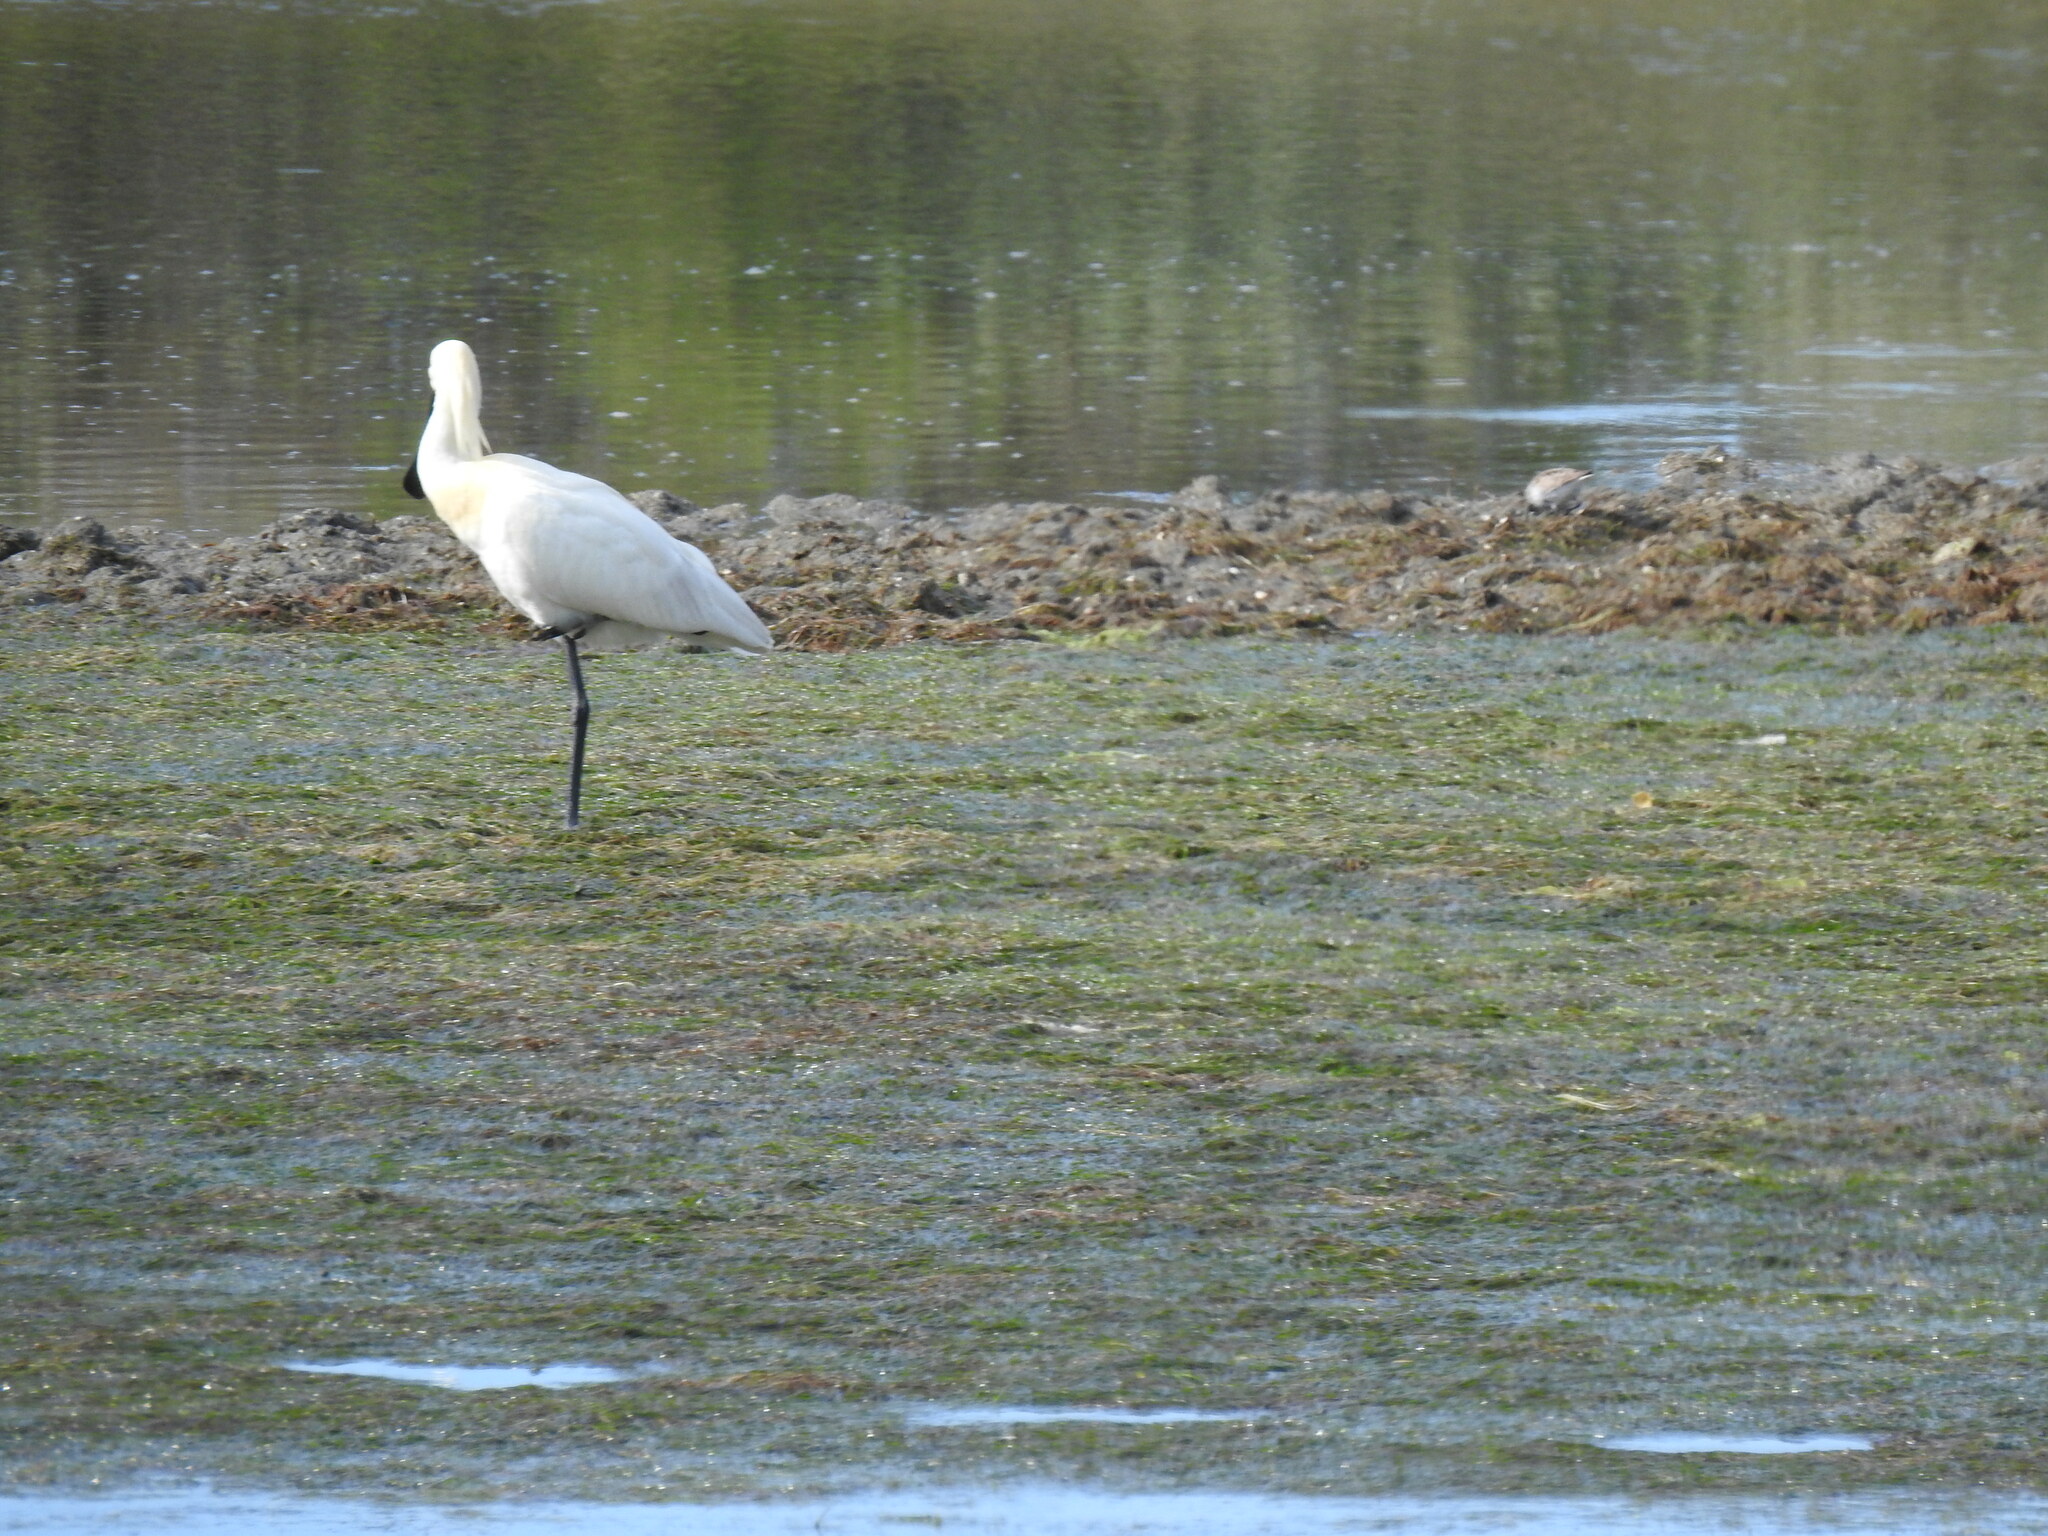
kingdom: Animalia
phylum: Chordata
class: Aves
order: Pelecaniformes
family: Threskiornithidae
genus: Platalea
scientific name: Platalea leucorodia
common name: Eurasian spoonbill
